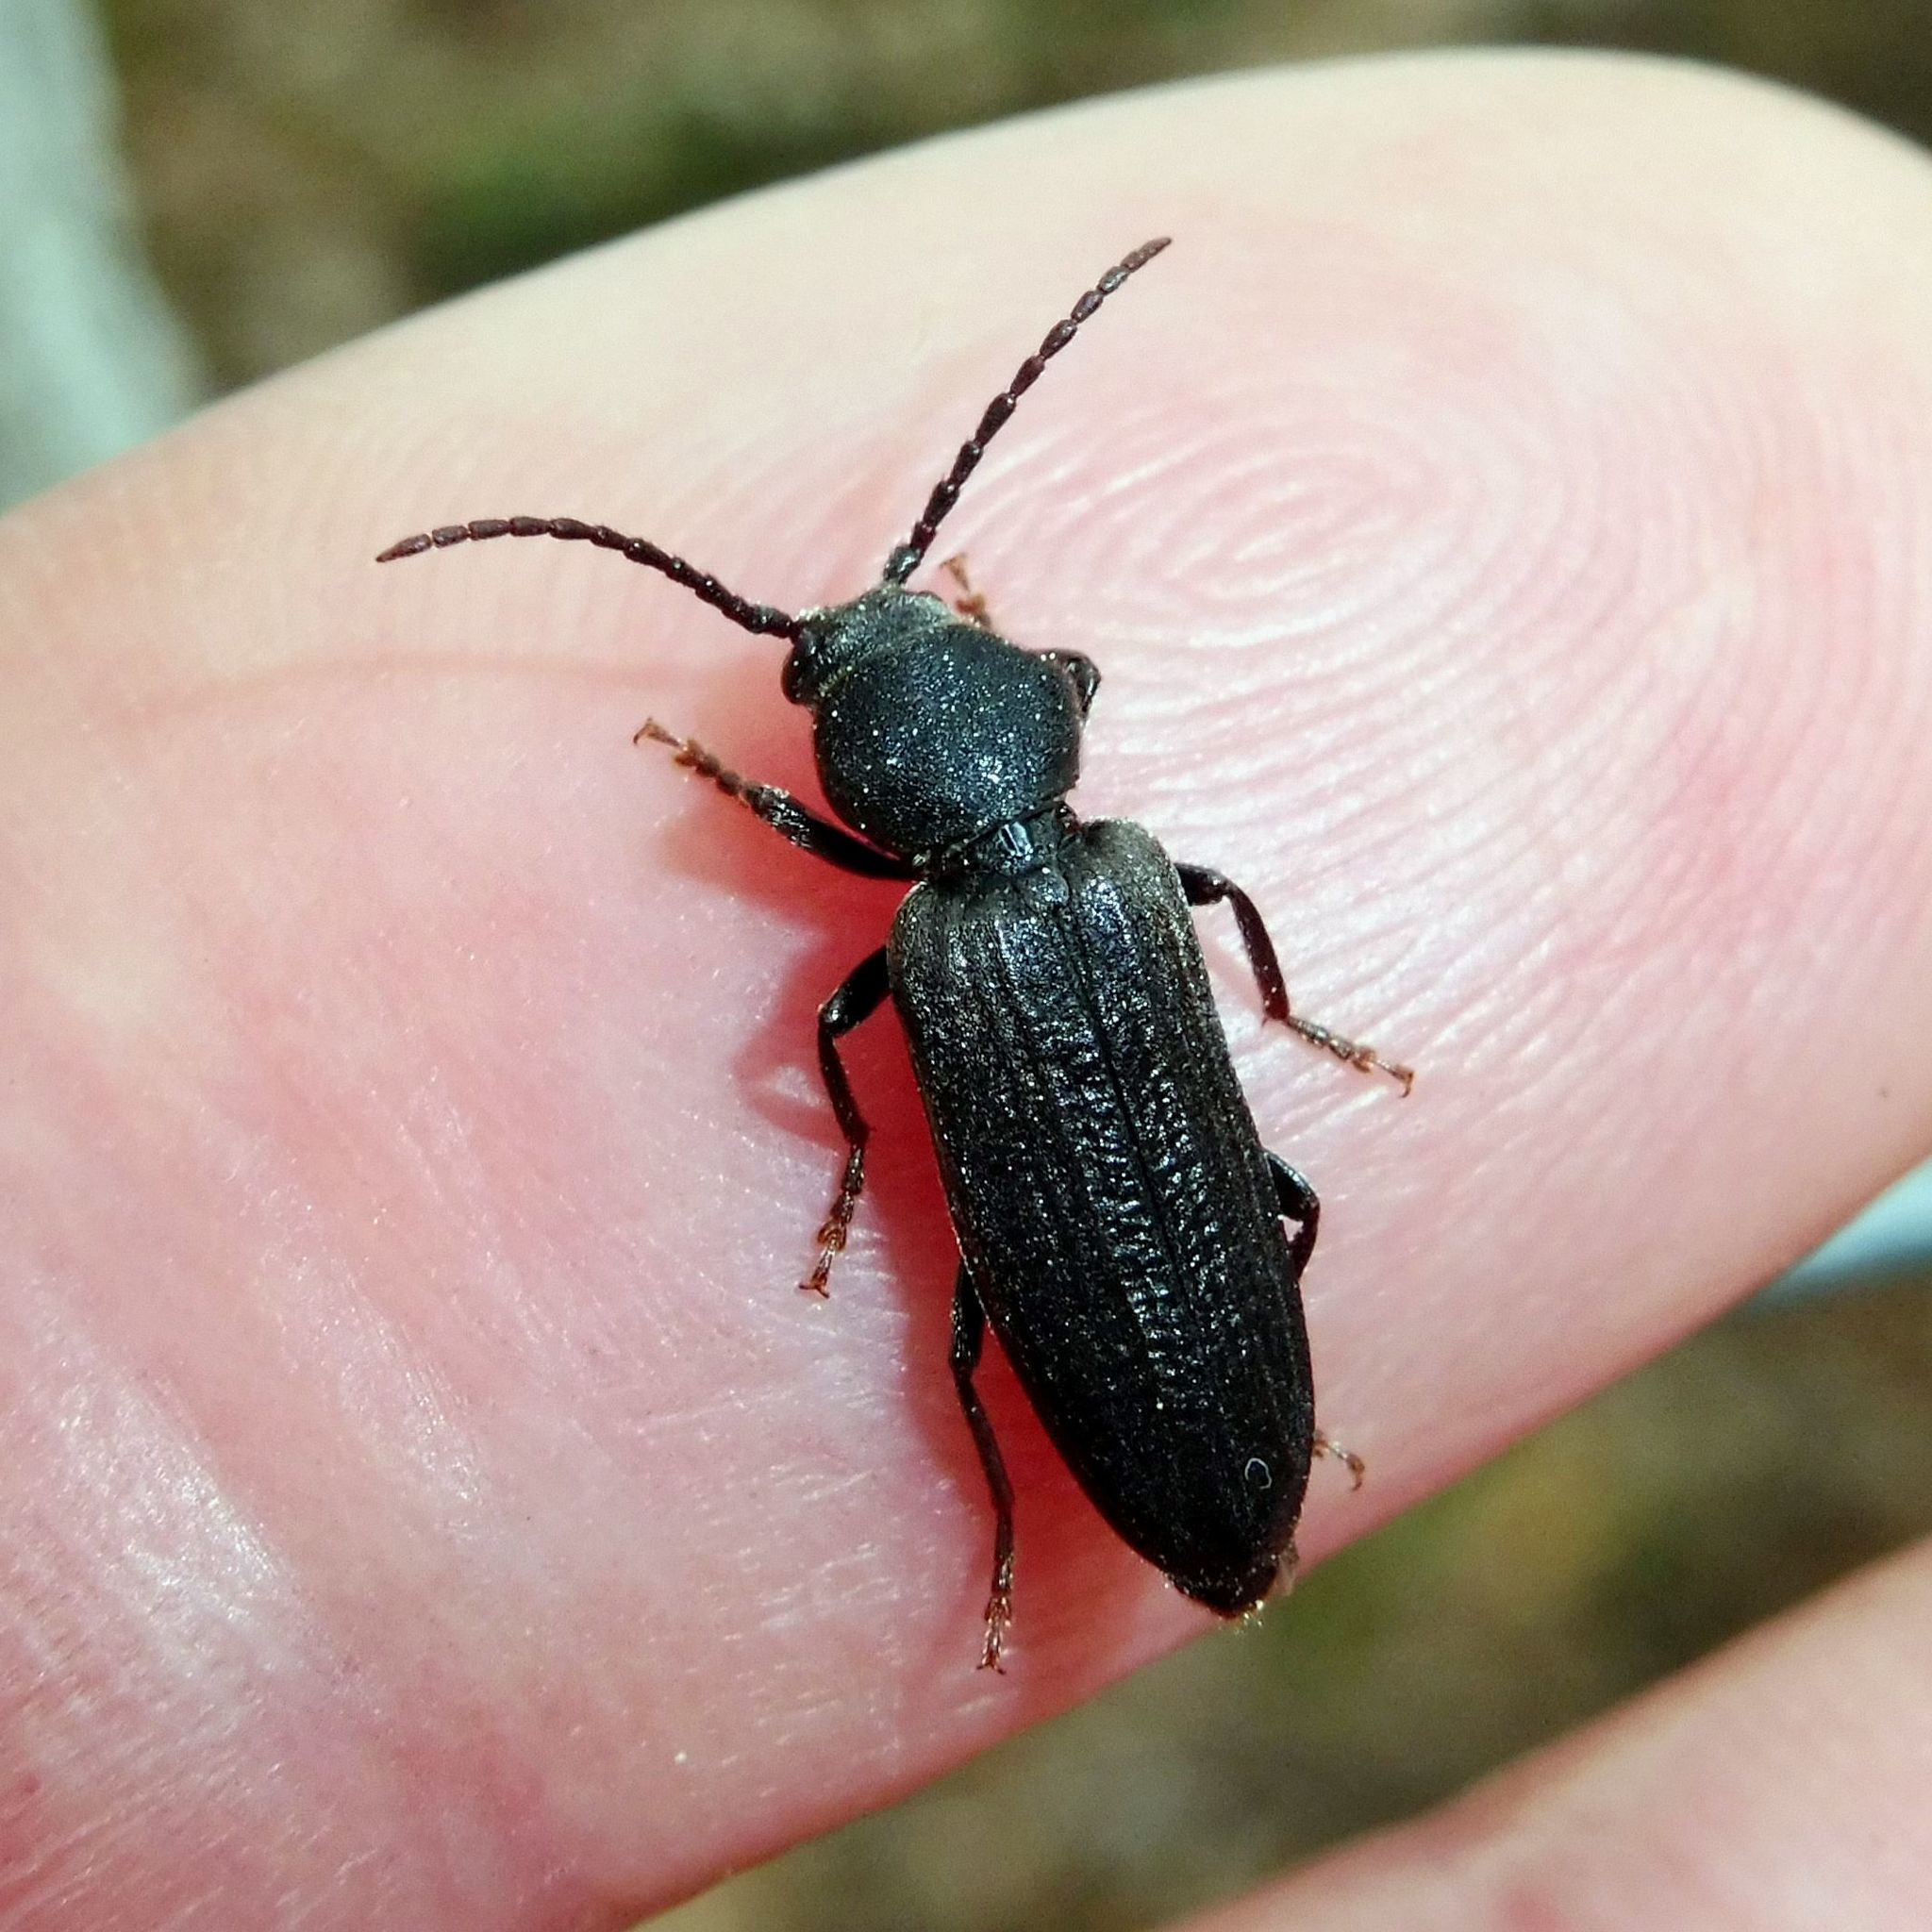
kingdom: Animalia
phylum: Arthropoda
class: Insecta
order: Coleoptera
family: Cerambycidae
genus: Asemum
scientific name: Asemum striatum
